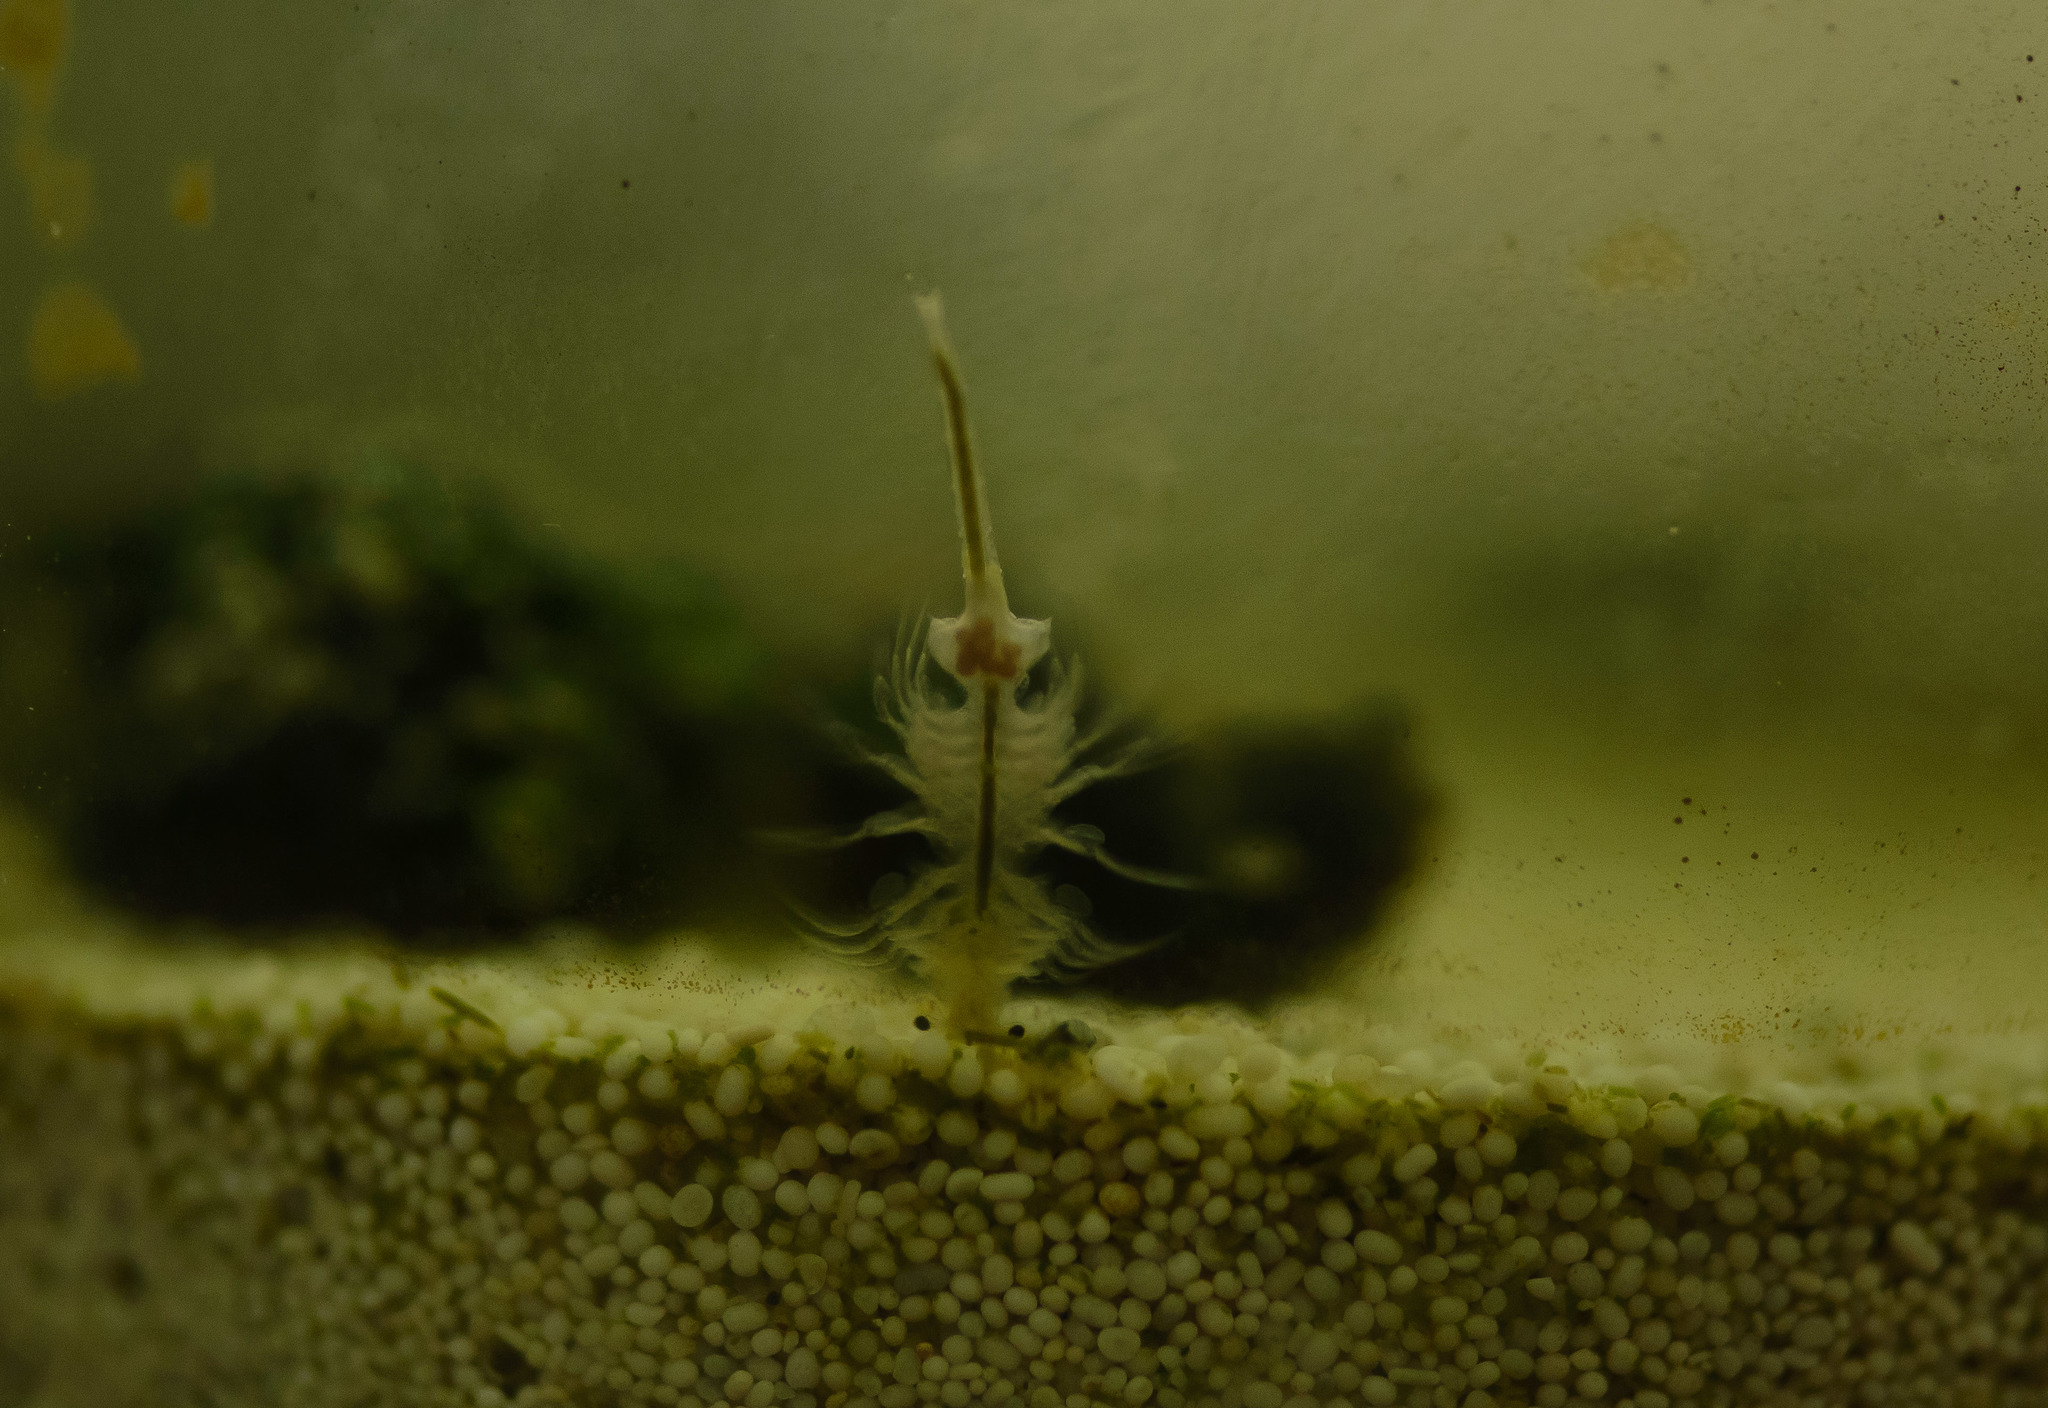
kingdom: Animalia
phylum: Arthropoda
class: Branchiopoda
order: Anostraca
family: Artemiidae
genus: Artemia
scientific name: Artemia monica
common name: Mono lake brine shrimp
